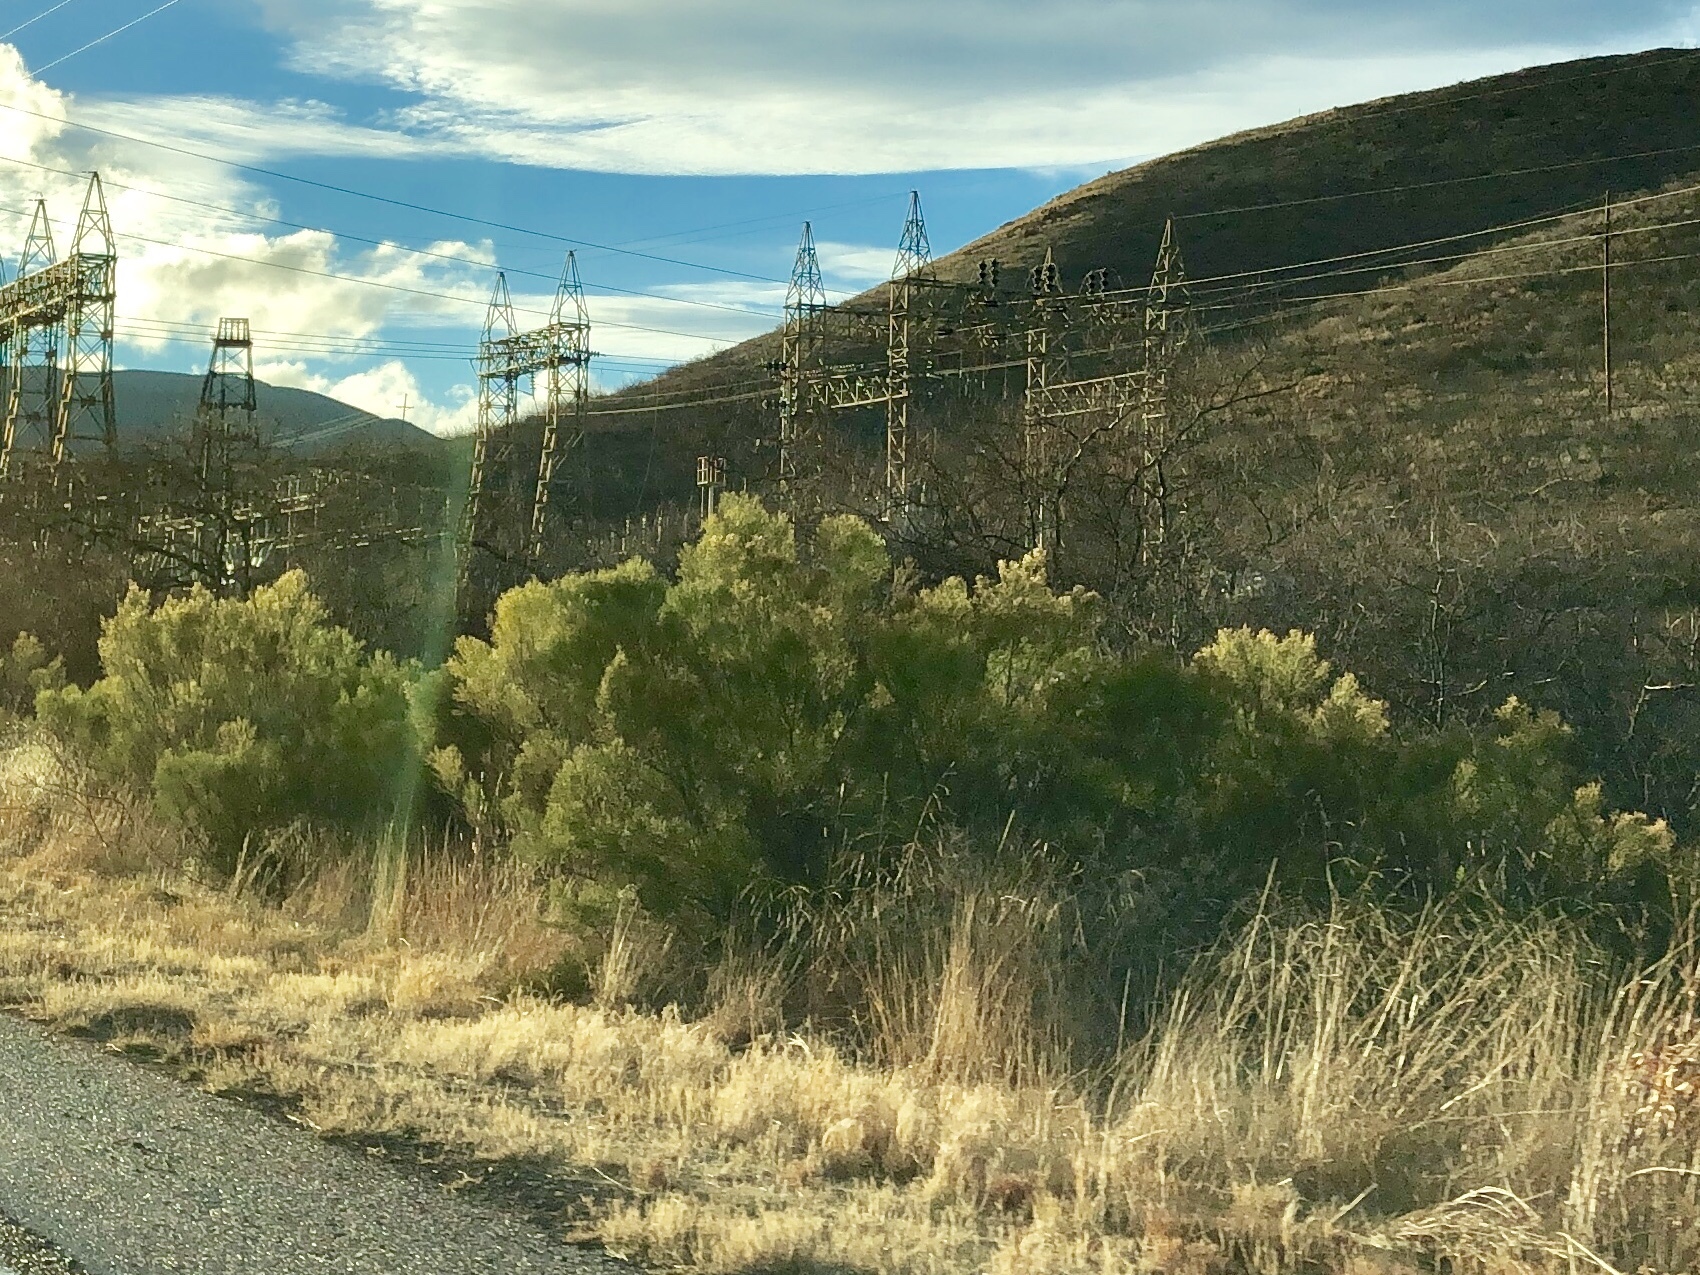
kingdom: Plantae
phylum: Tracheophyta
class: Magnoliopsida
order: Asterales
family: Asteraceae
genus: Baccharis
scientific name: Baccharis sarothroides
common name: Desert-broom
